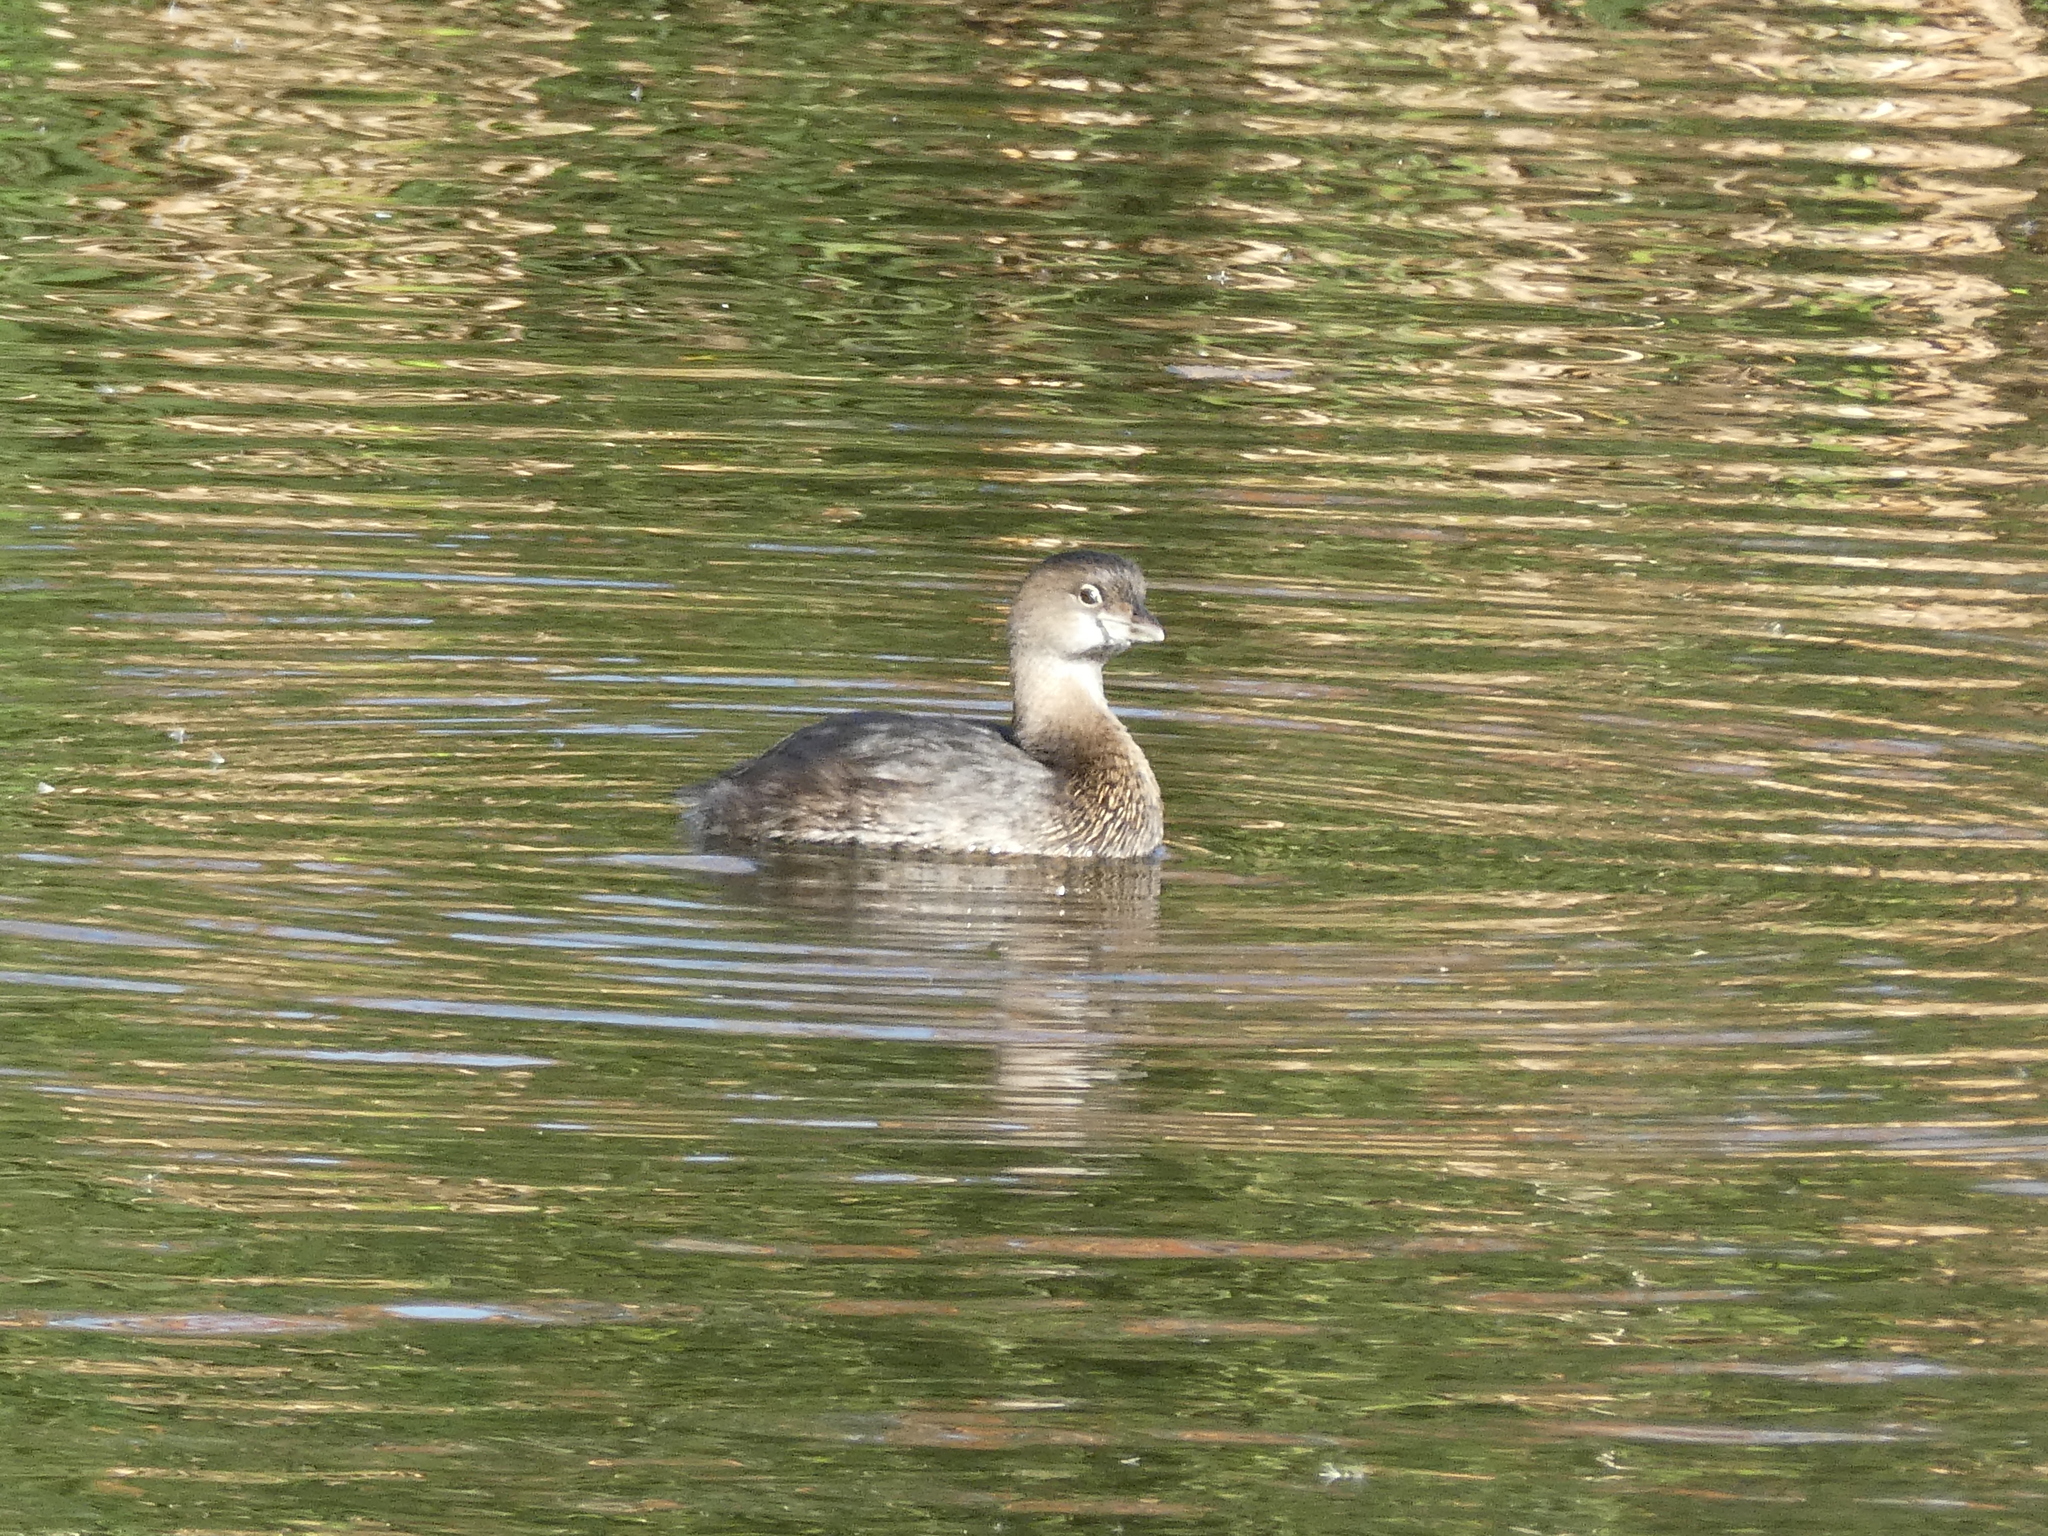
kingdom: Animalia
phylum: Chordata
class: Aves
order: Podicipediformes
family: Podicipedidae
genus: Podilymbus
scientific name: Podilymbus podiceps
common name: Pied-billed grebe
